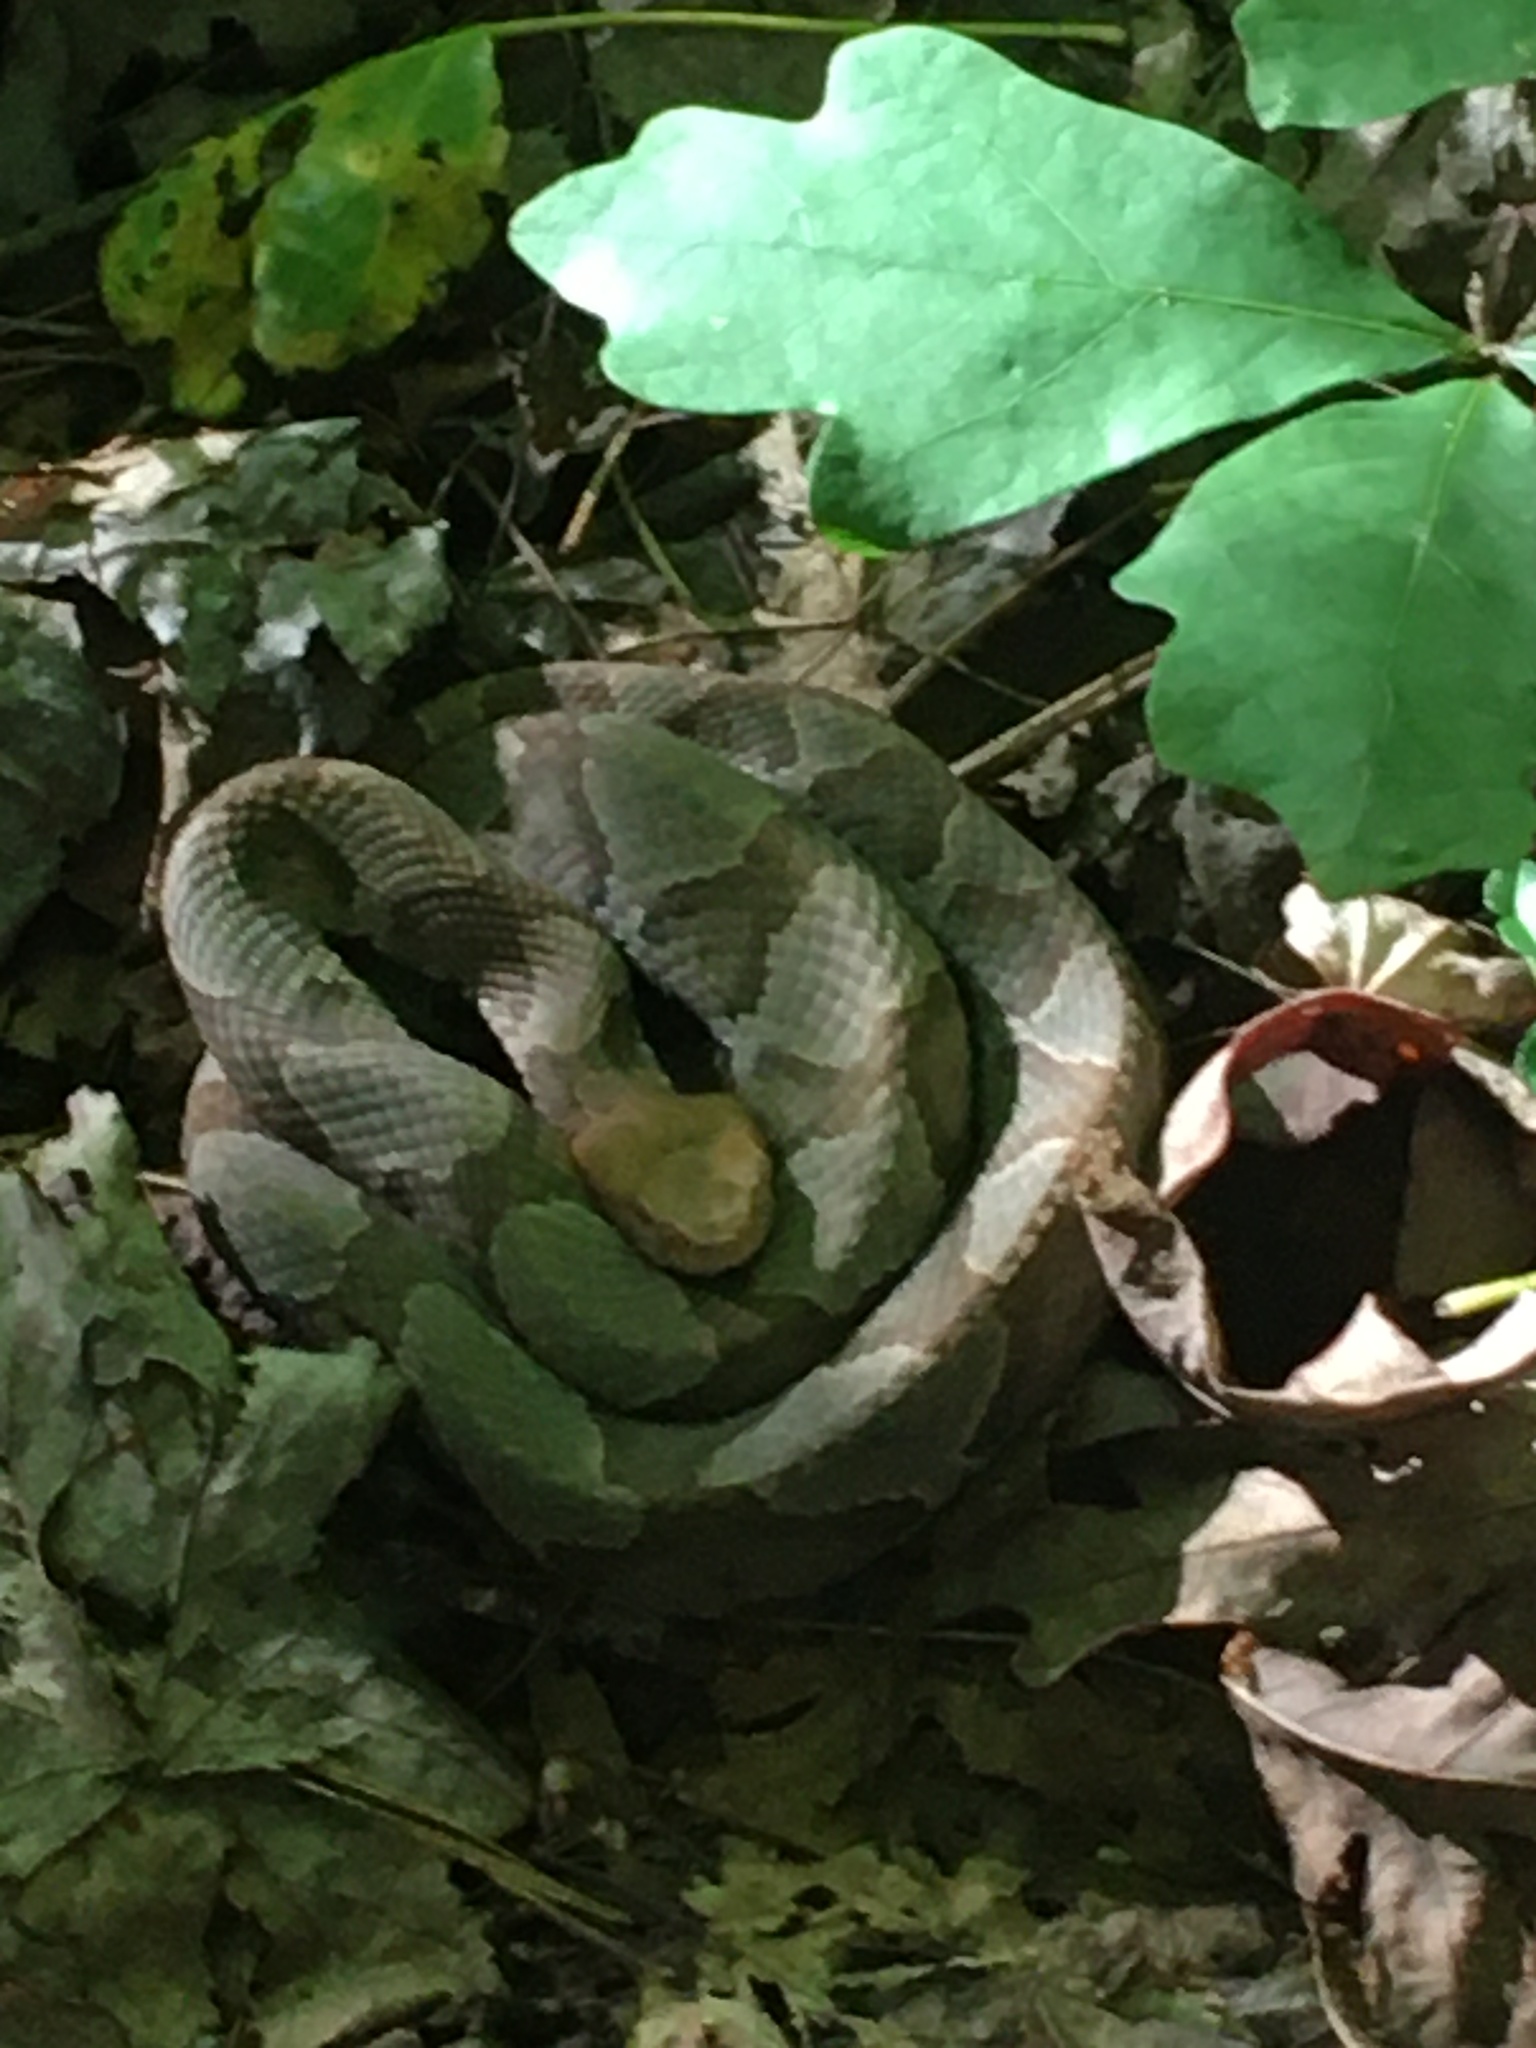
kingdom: Animalia
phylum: Chordata
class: Squamata
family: Viperidae
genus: Agkistrodon
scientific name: Agkistrodon contortrix
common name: Northern copperhead
